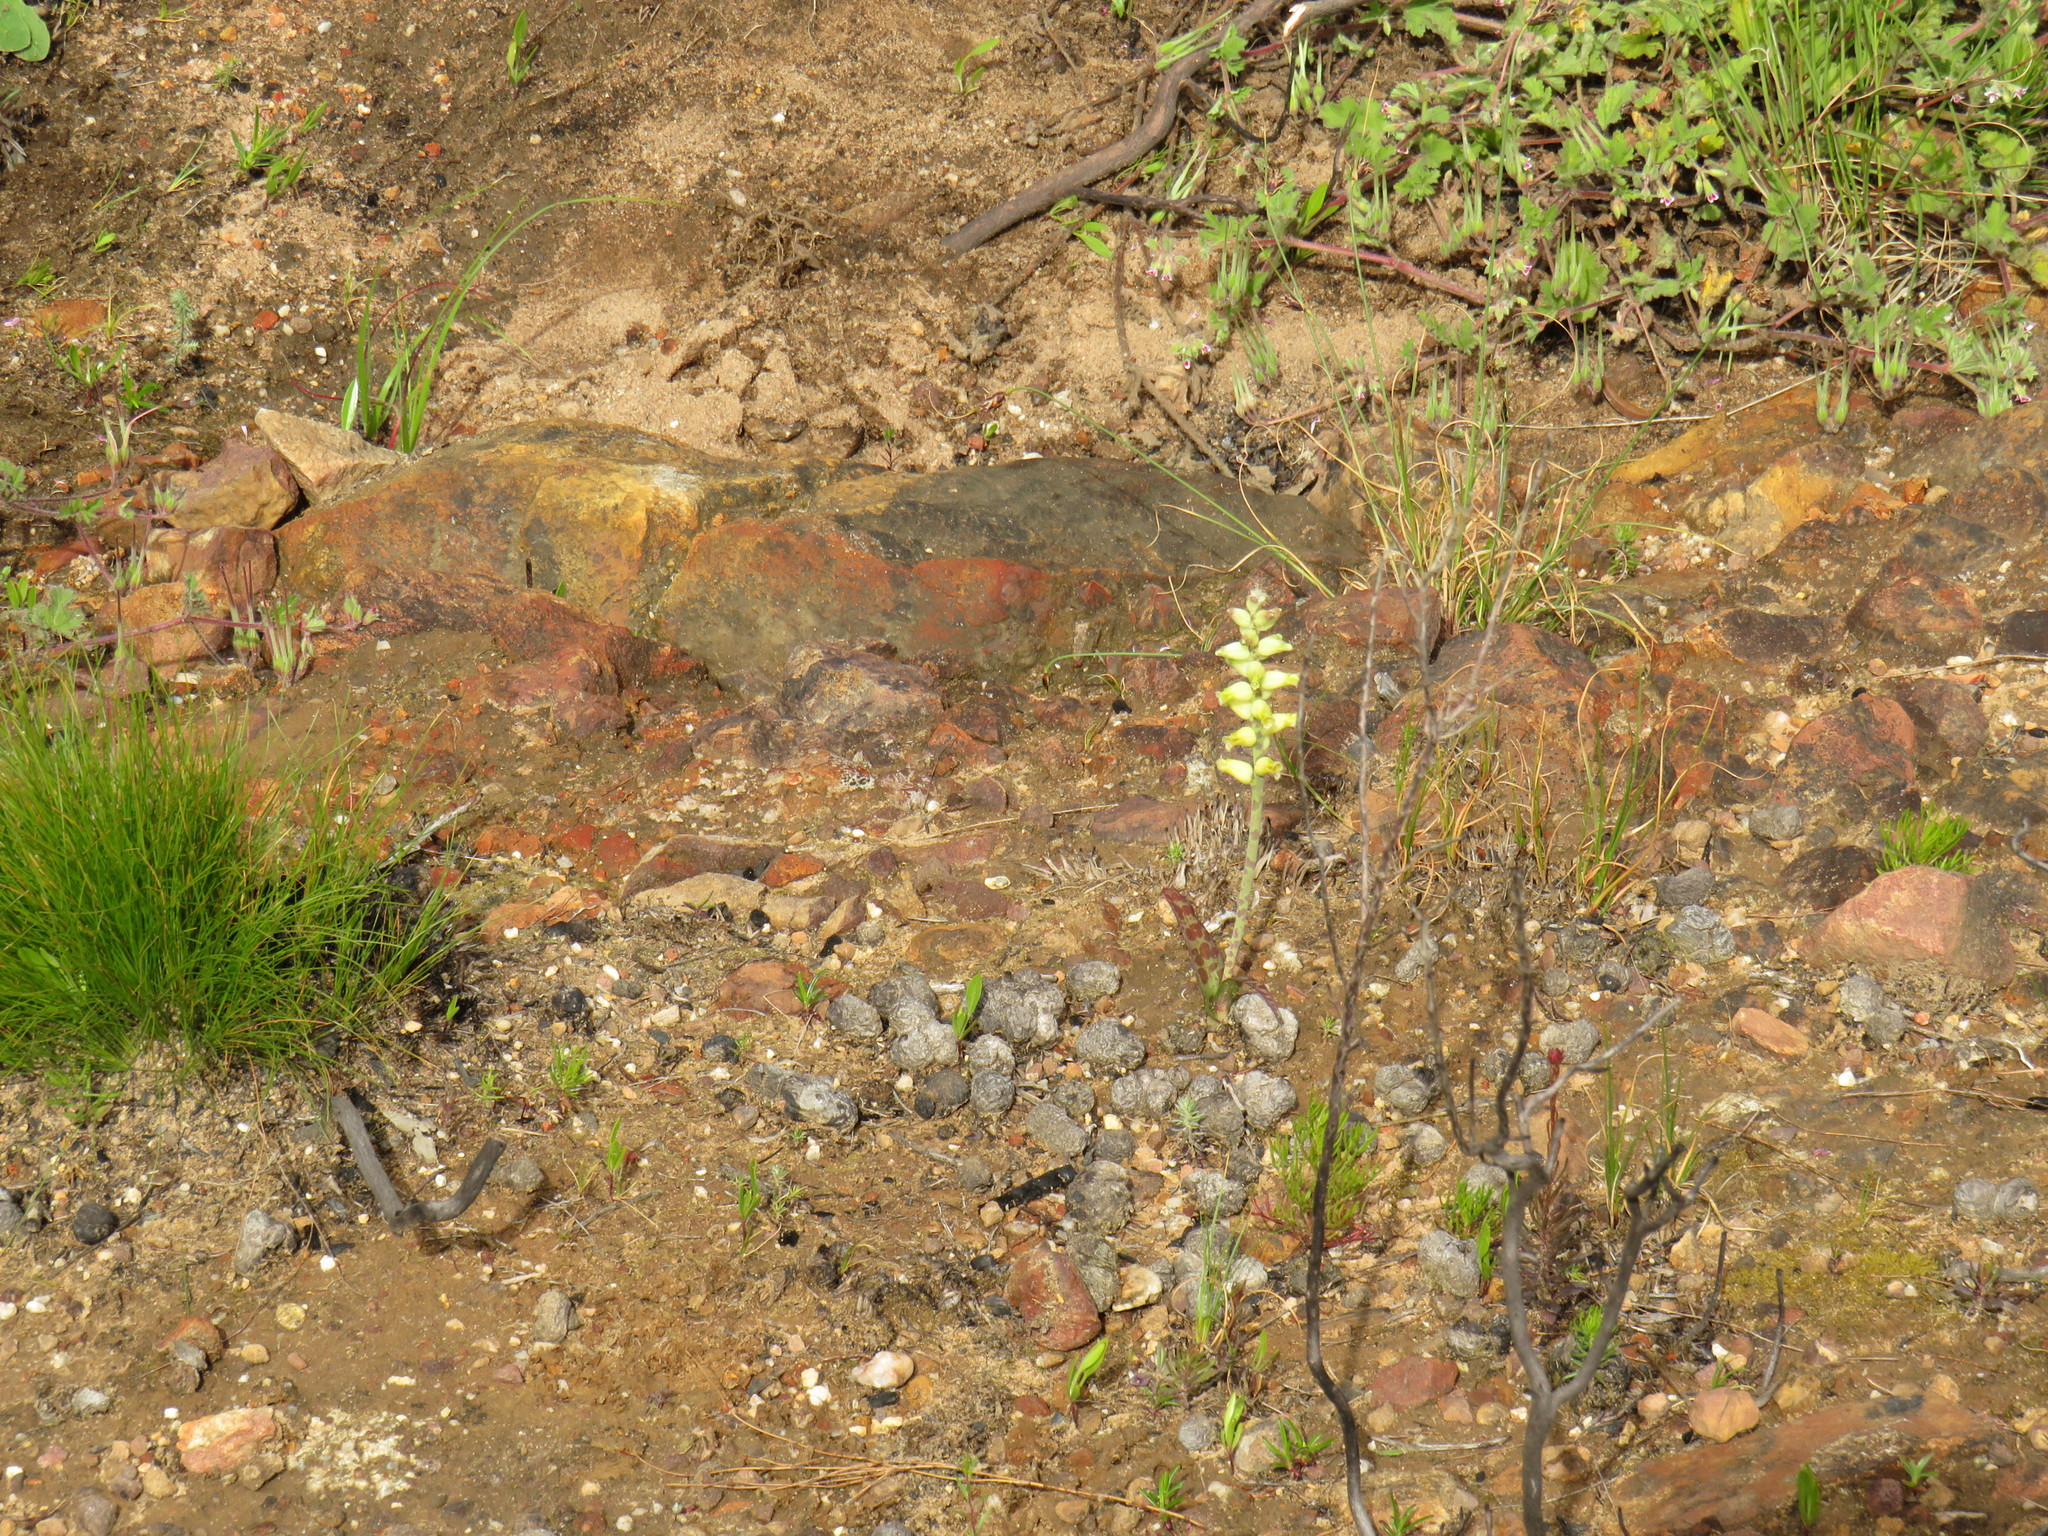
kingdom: Plantae
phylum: Tracheophyta
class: Liliopsida
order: Asparagales
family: Asparagaceae
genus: Lachenalia
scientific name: Lachenalia lutea
